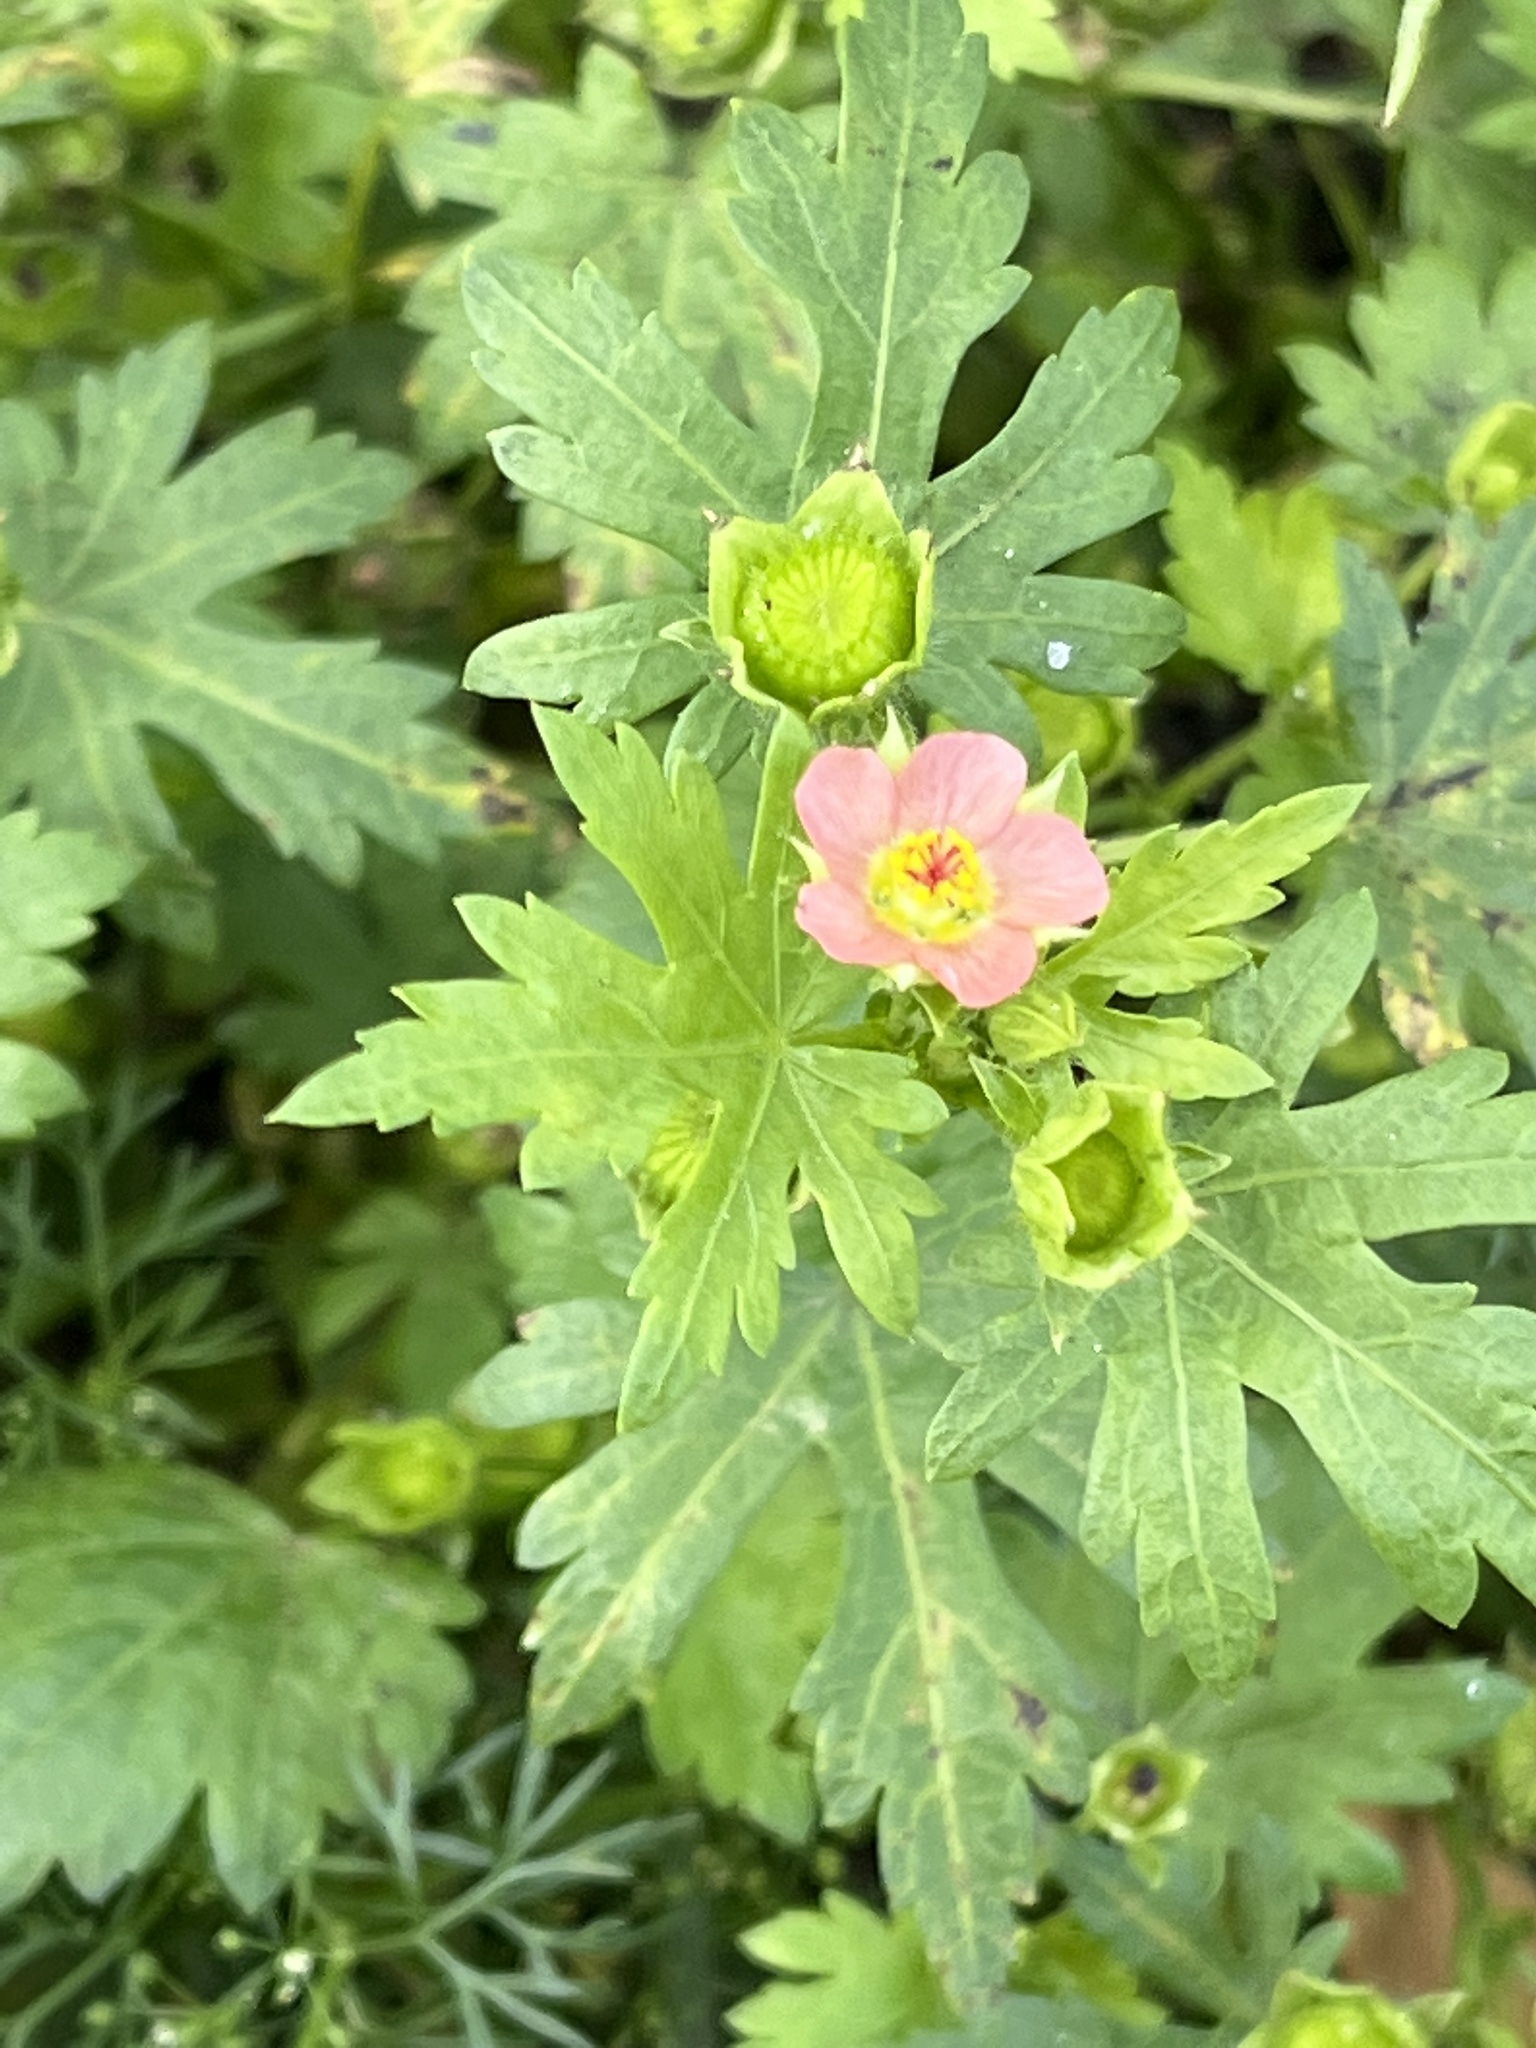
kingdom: Plantae
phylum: Tracheophyta
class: Magnoliopsida
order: Malvales
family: Malvaceae
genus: Modiola
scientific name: Modiola caroliniana
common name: Carolina bristlemallow
